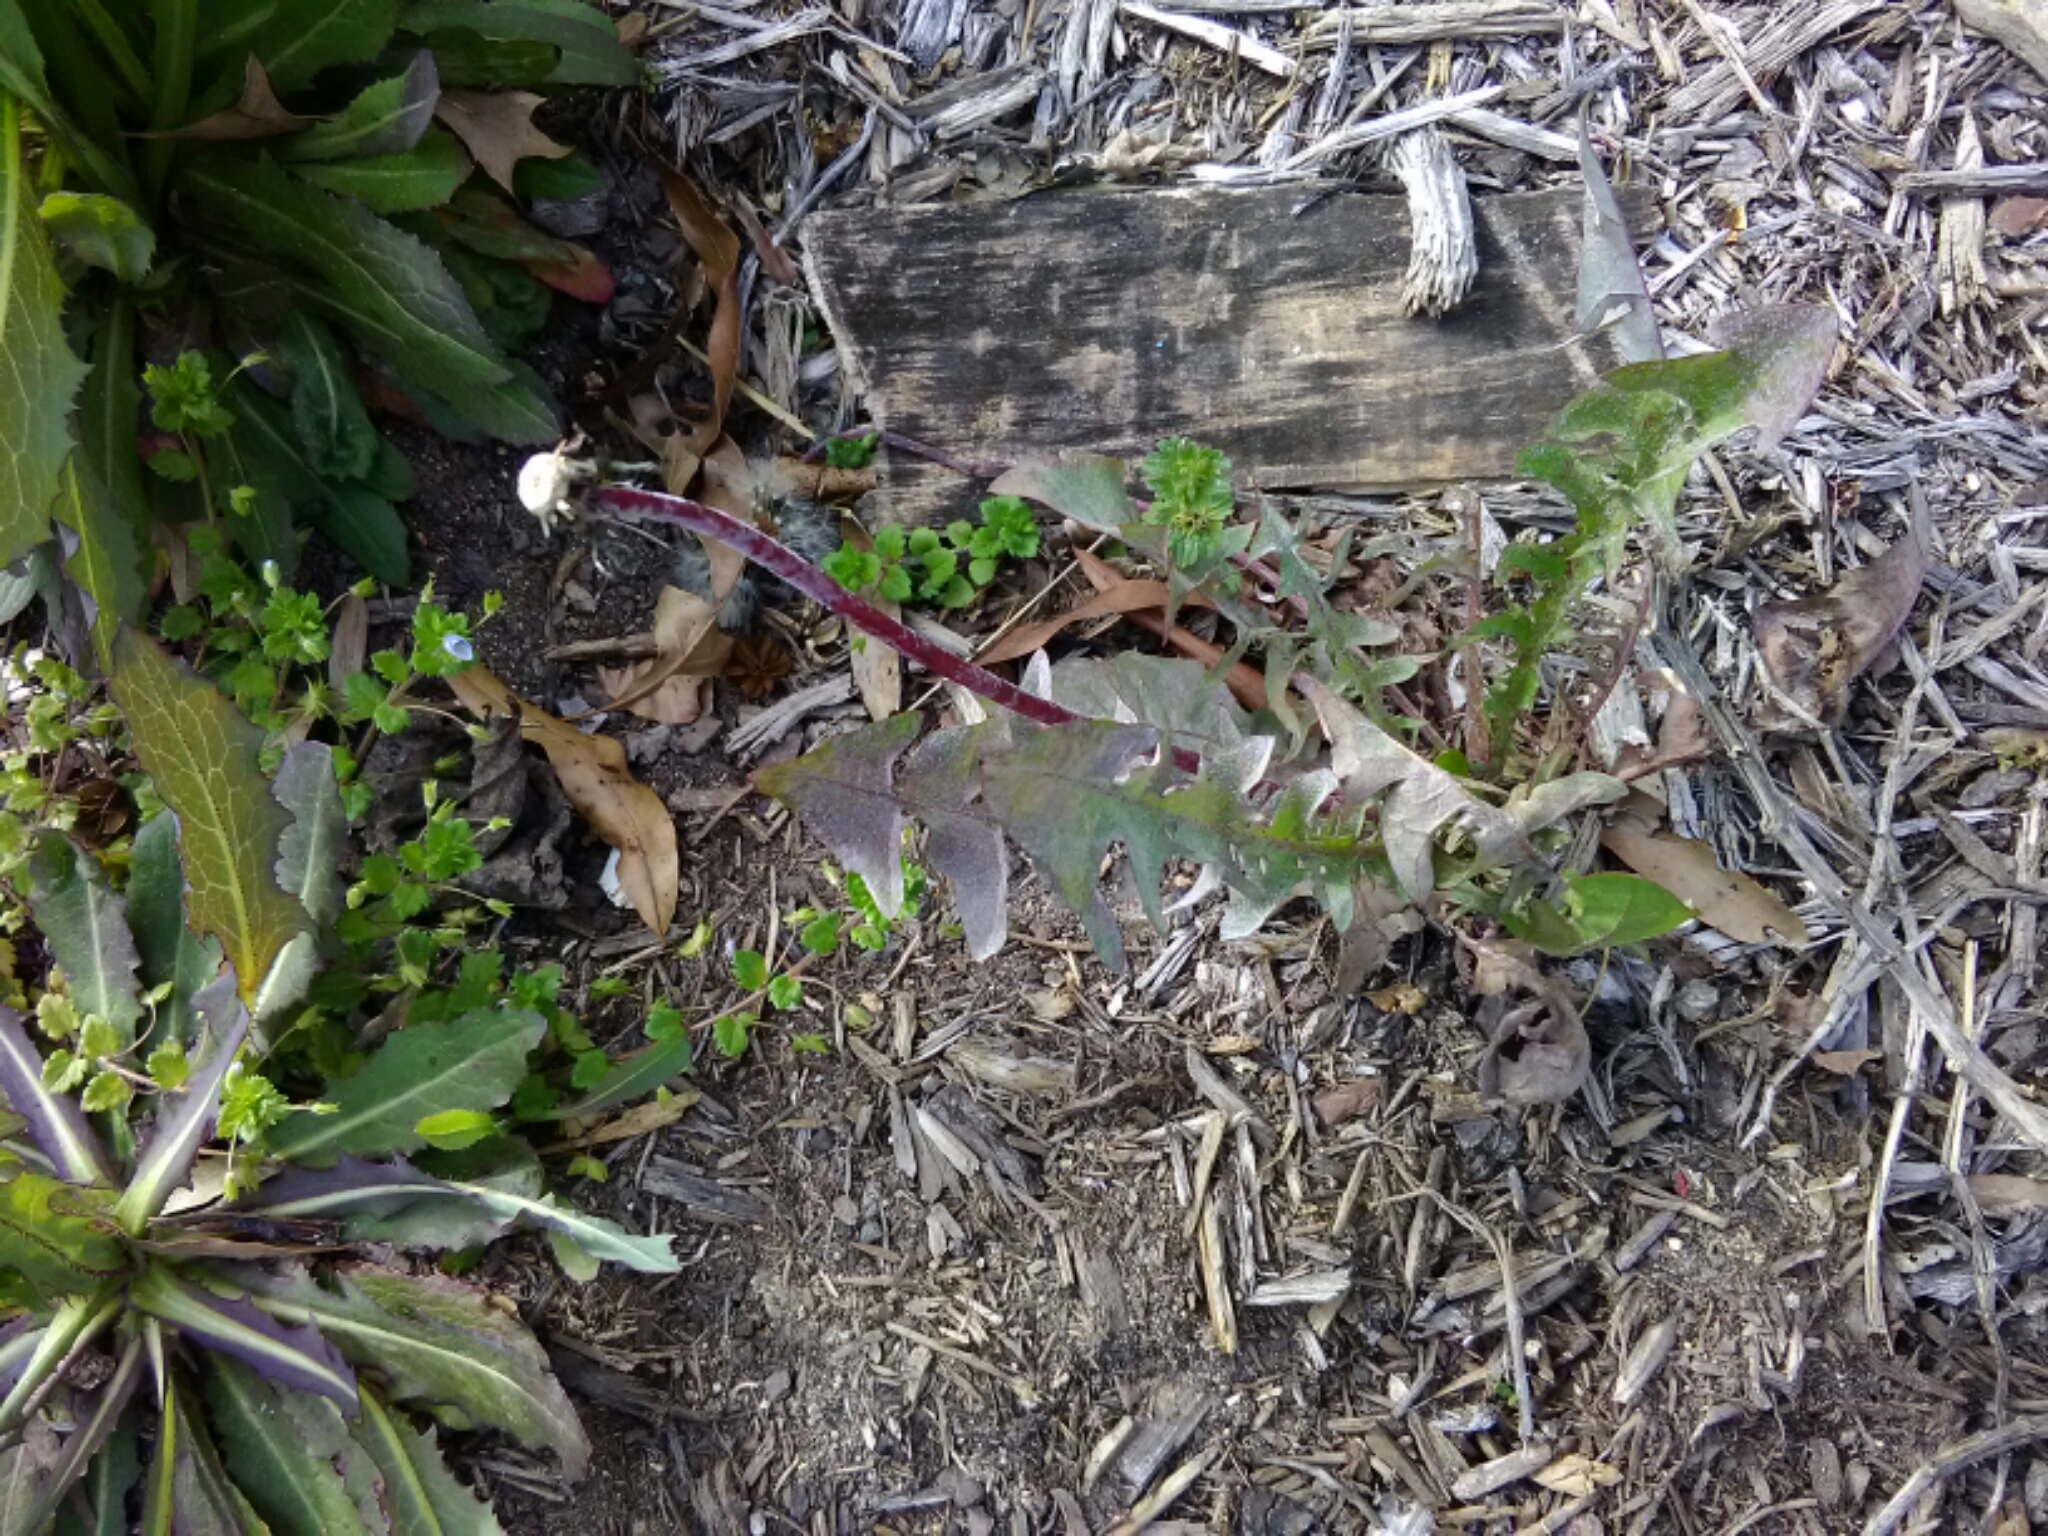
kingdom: Plantae
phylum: Tracheophyta
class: Magnoliopsida
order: Asterales
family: Asteraceae
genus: Taraxacum
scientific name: Taraxacum officinale
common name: Common dandelion
